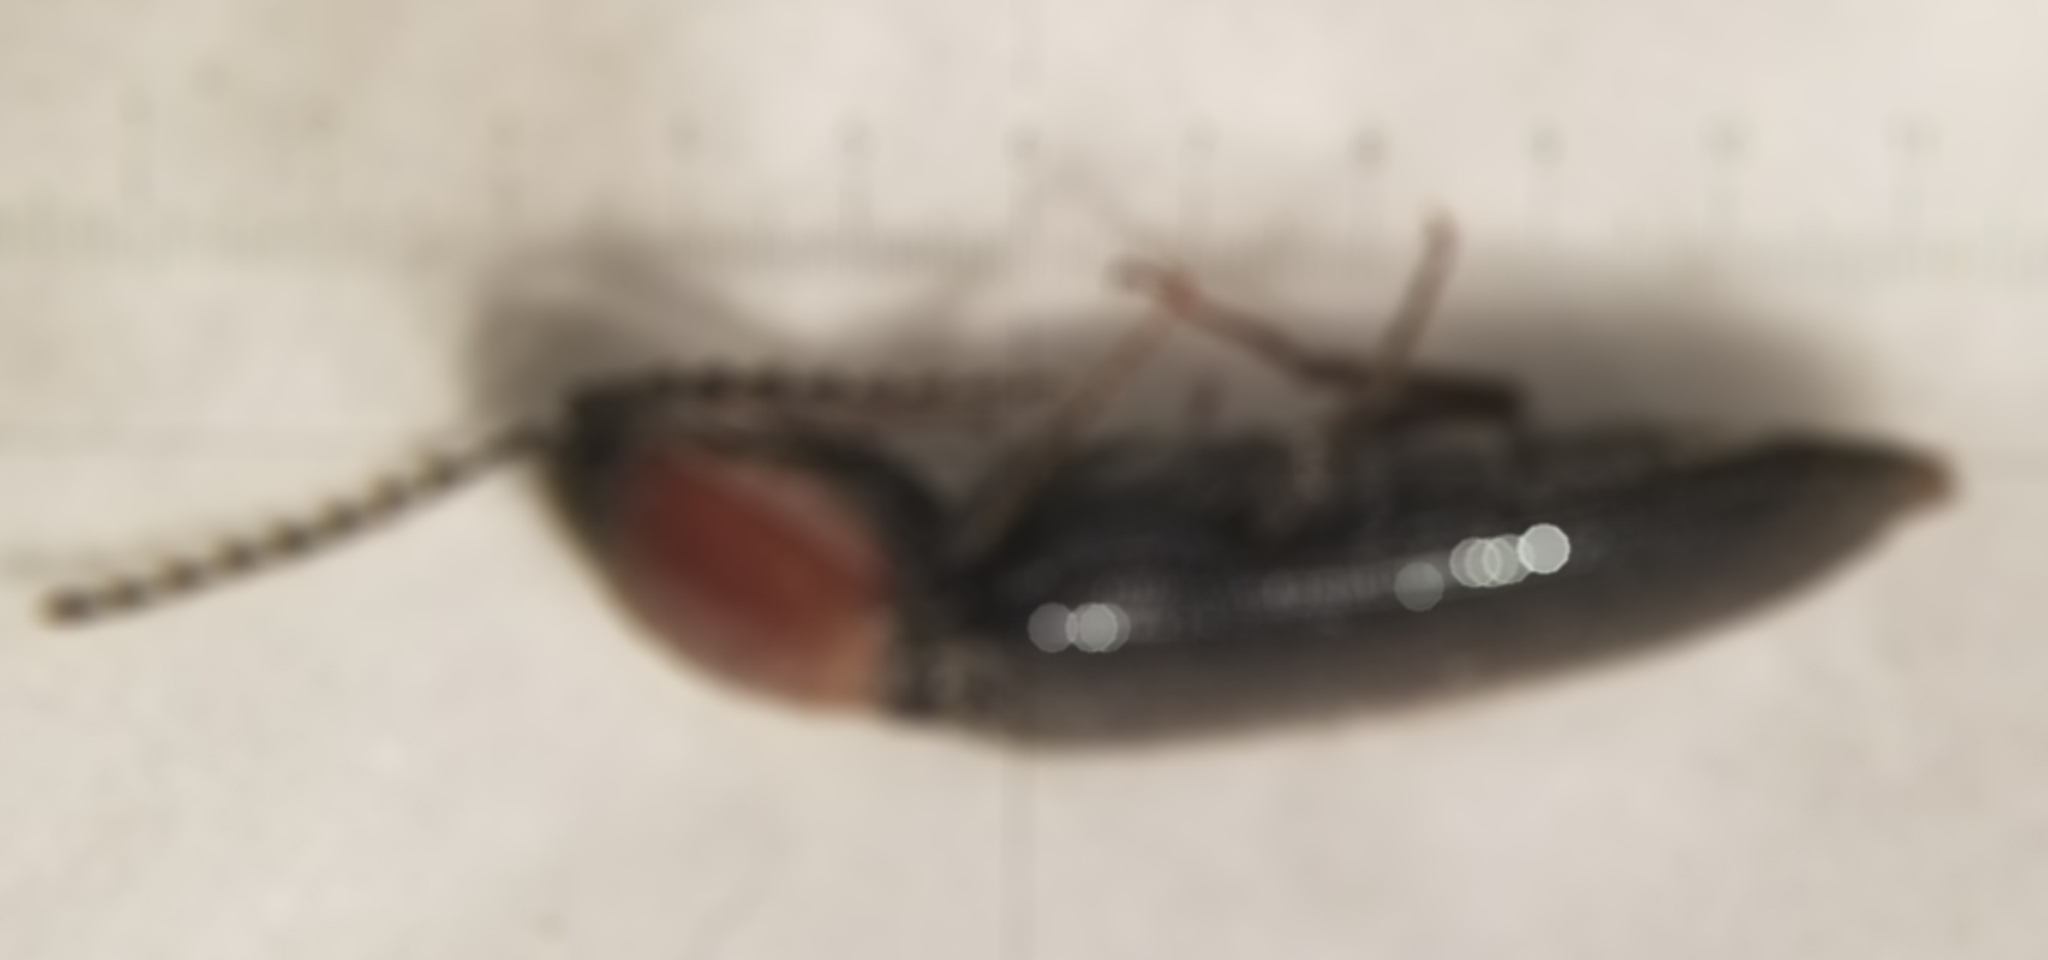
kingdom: Animalia
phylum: Arthropoda
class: Insecta
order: Coleoptera
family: Elateridae
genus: Melanotus
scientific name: Melanotus leonardi
